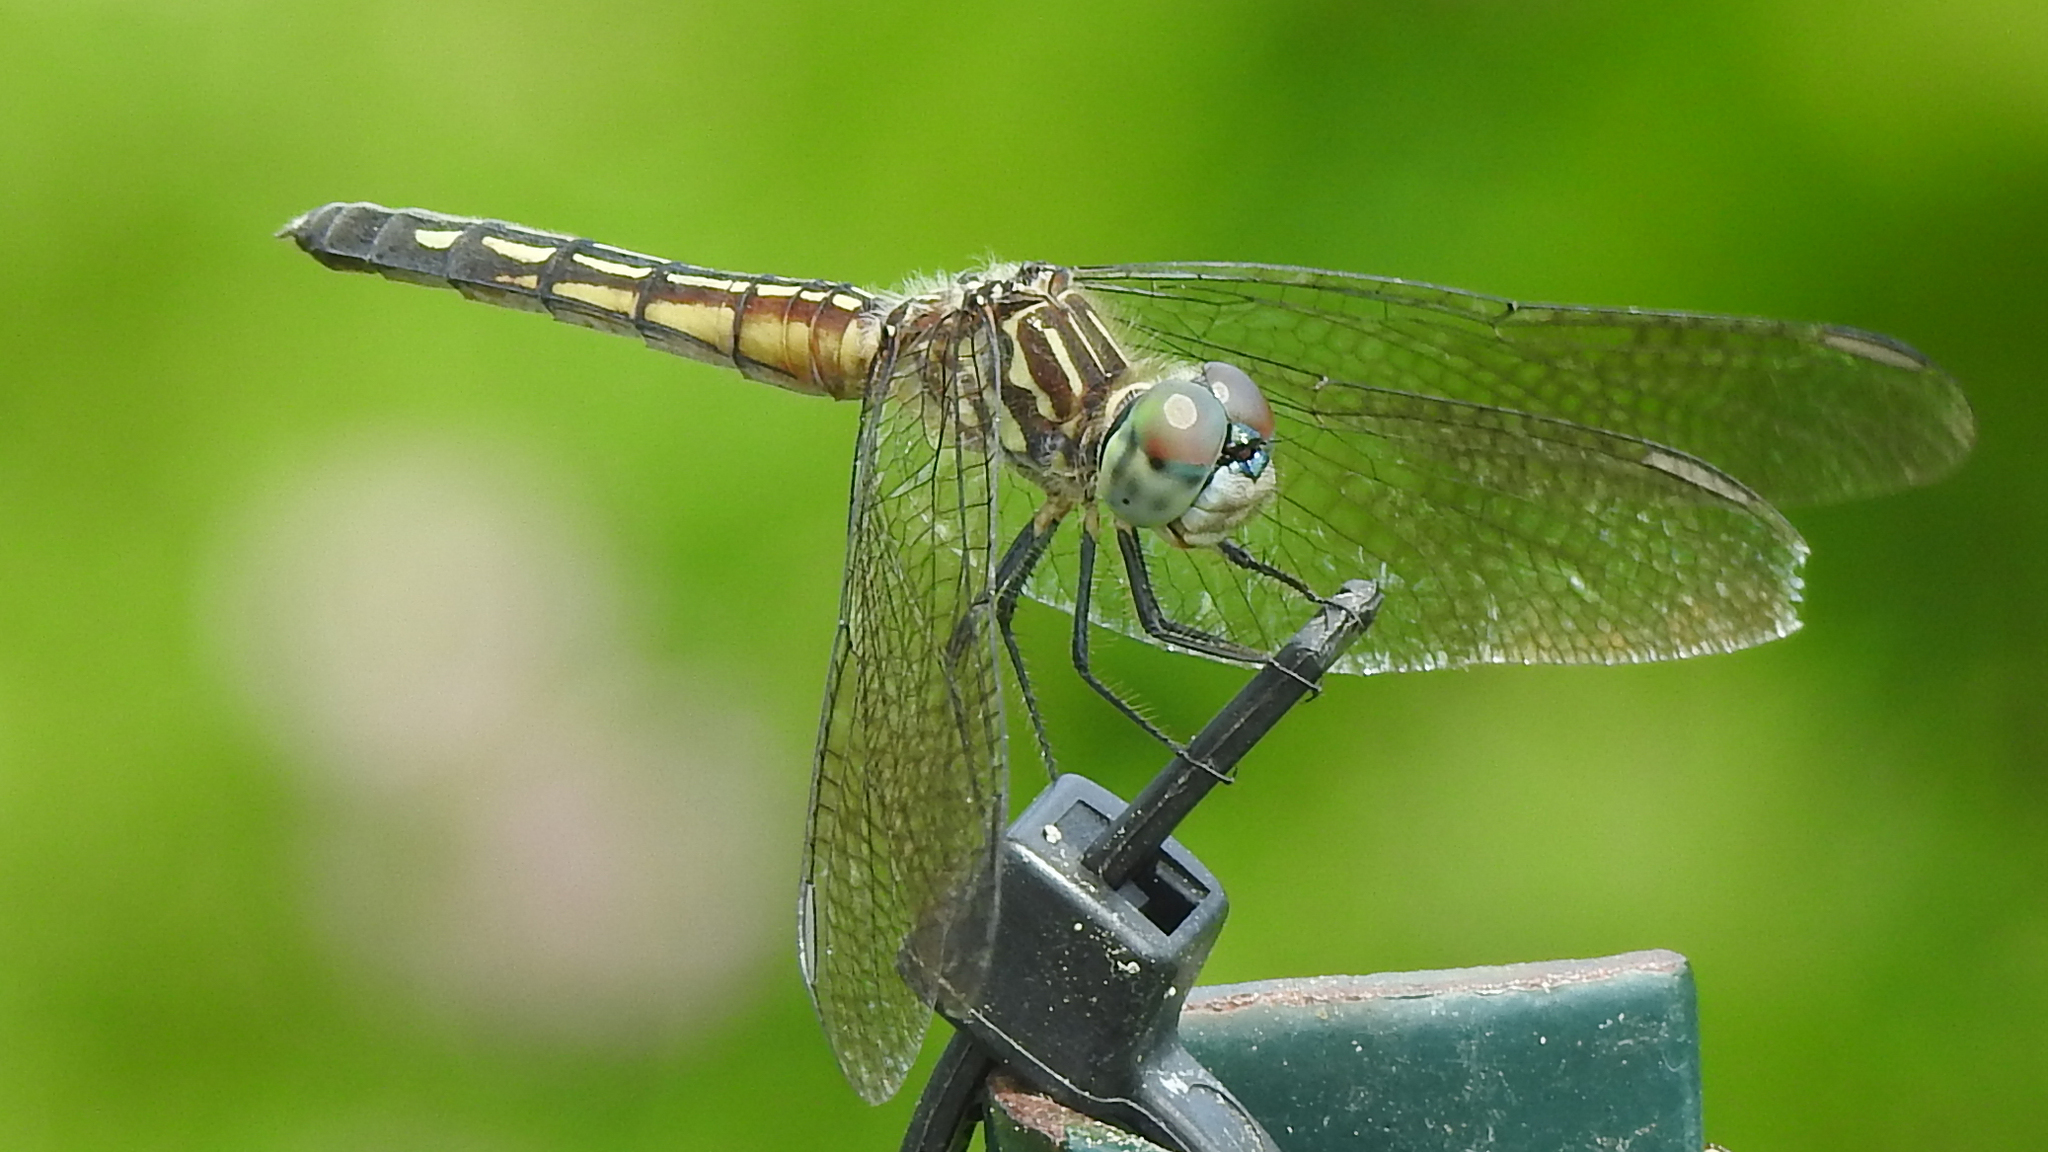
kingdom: Animalia
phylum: Arthropoda
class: Insecta
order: Odonata
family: Libellulidae
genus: Pachydiplax
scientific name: Pachydiplax longipennis
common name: Blue dasher
